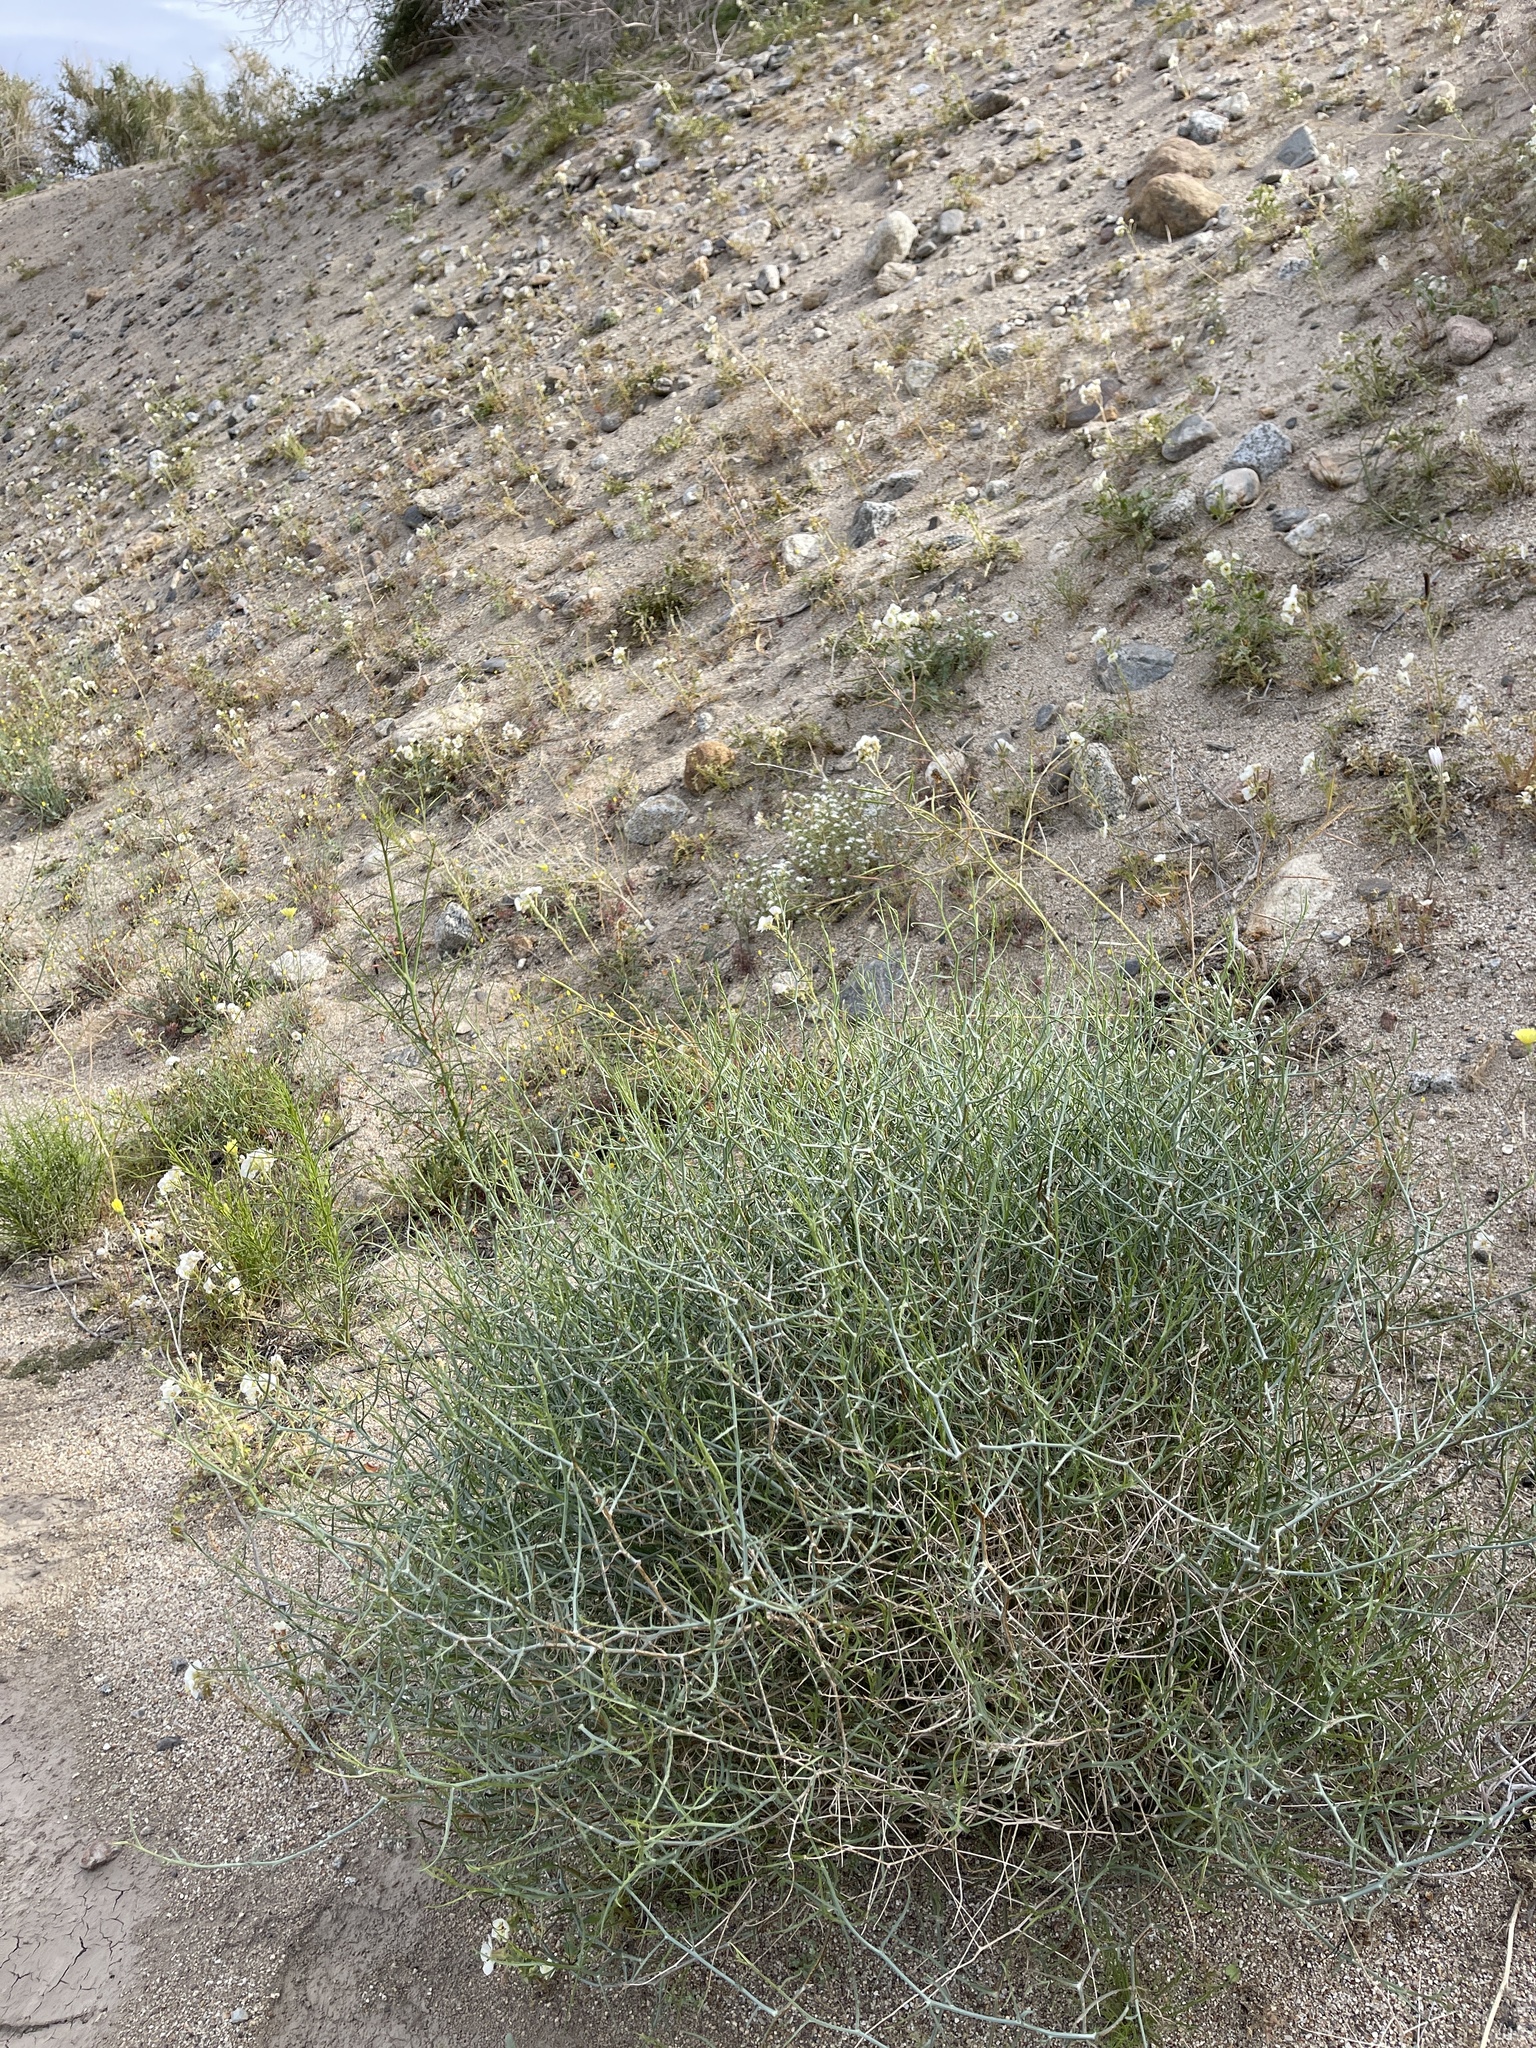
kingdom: Plantae
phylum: Tracheophyta
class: Magnoliopsida
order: Asterales
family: Asteraceae
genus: Stephanomeria
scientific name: Stephanomeria pauciflora
